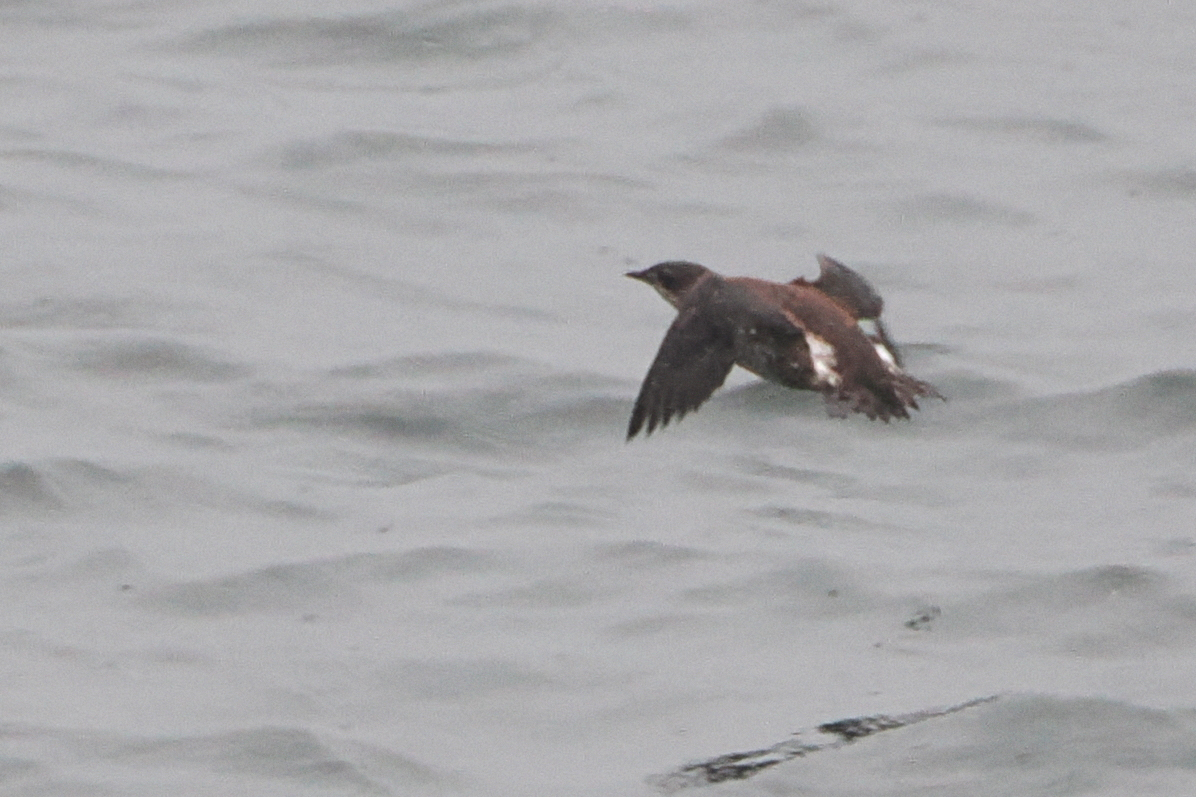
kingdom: Animalia
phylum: Chordata
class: Aves
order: Charadriiformes
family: Alcidae
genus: Brachyramphus
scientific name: Brachyramphus marmoratus
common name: Marbled murrelet
